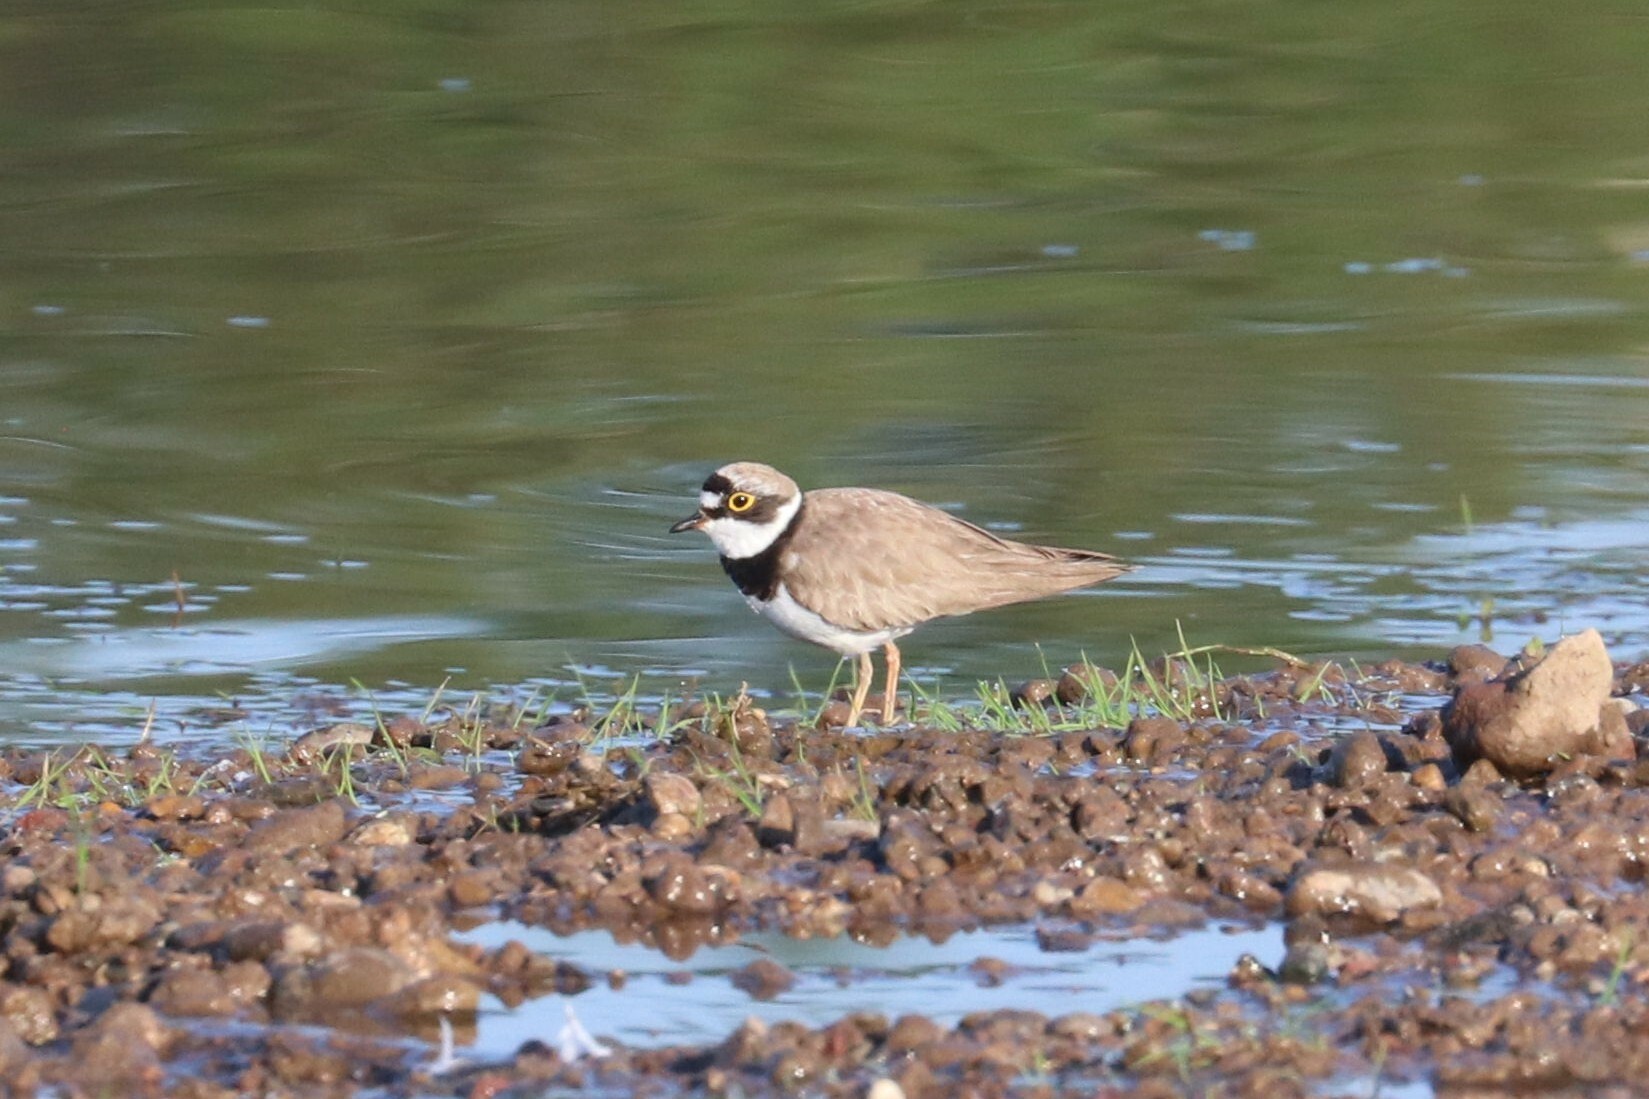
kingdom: Animalia
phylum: Chordata
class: Aves
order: Charadriiformes
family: Charadriidae
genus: Charadrius
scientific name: Charadrius dubius
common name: Little ringed plover
